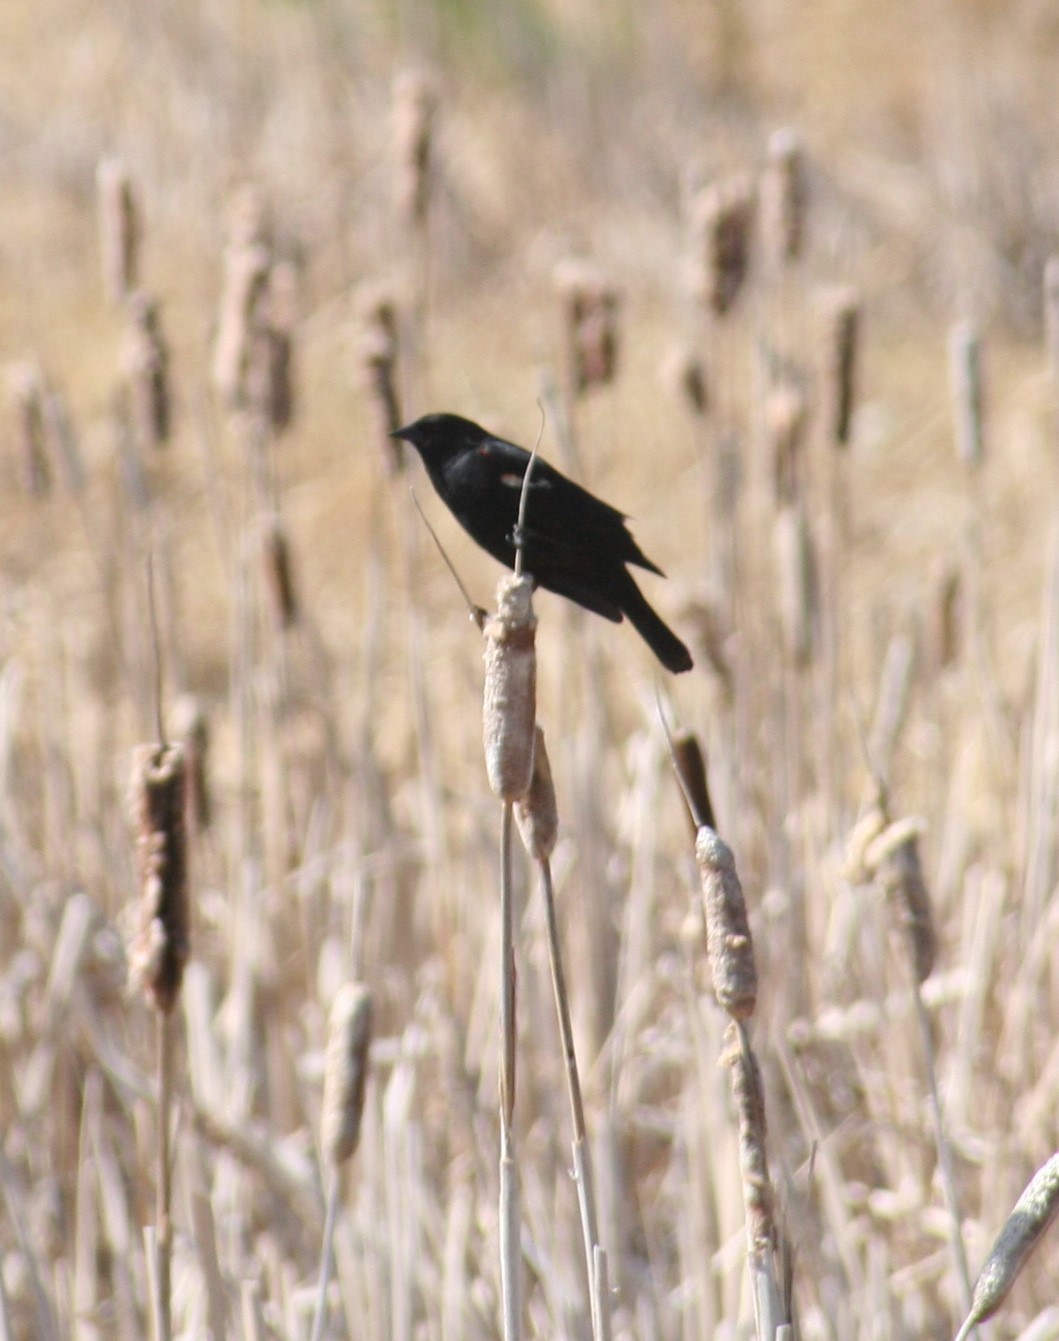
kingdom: Animalia
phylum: Chordata
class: Aves
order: Passeriformes
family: Icteridae
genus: Agelaius
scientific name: Agelaius phoeniceus
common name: Red-winged blackbird
